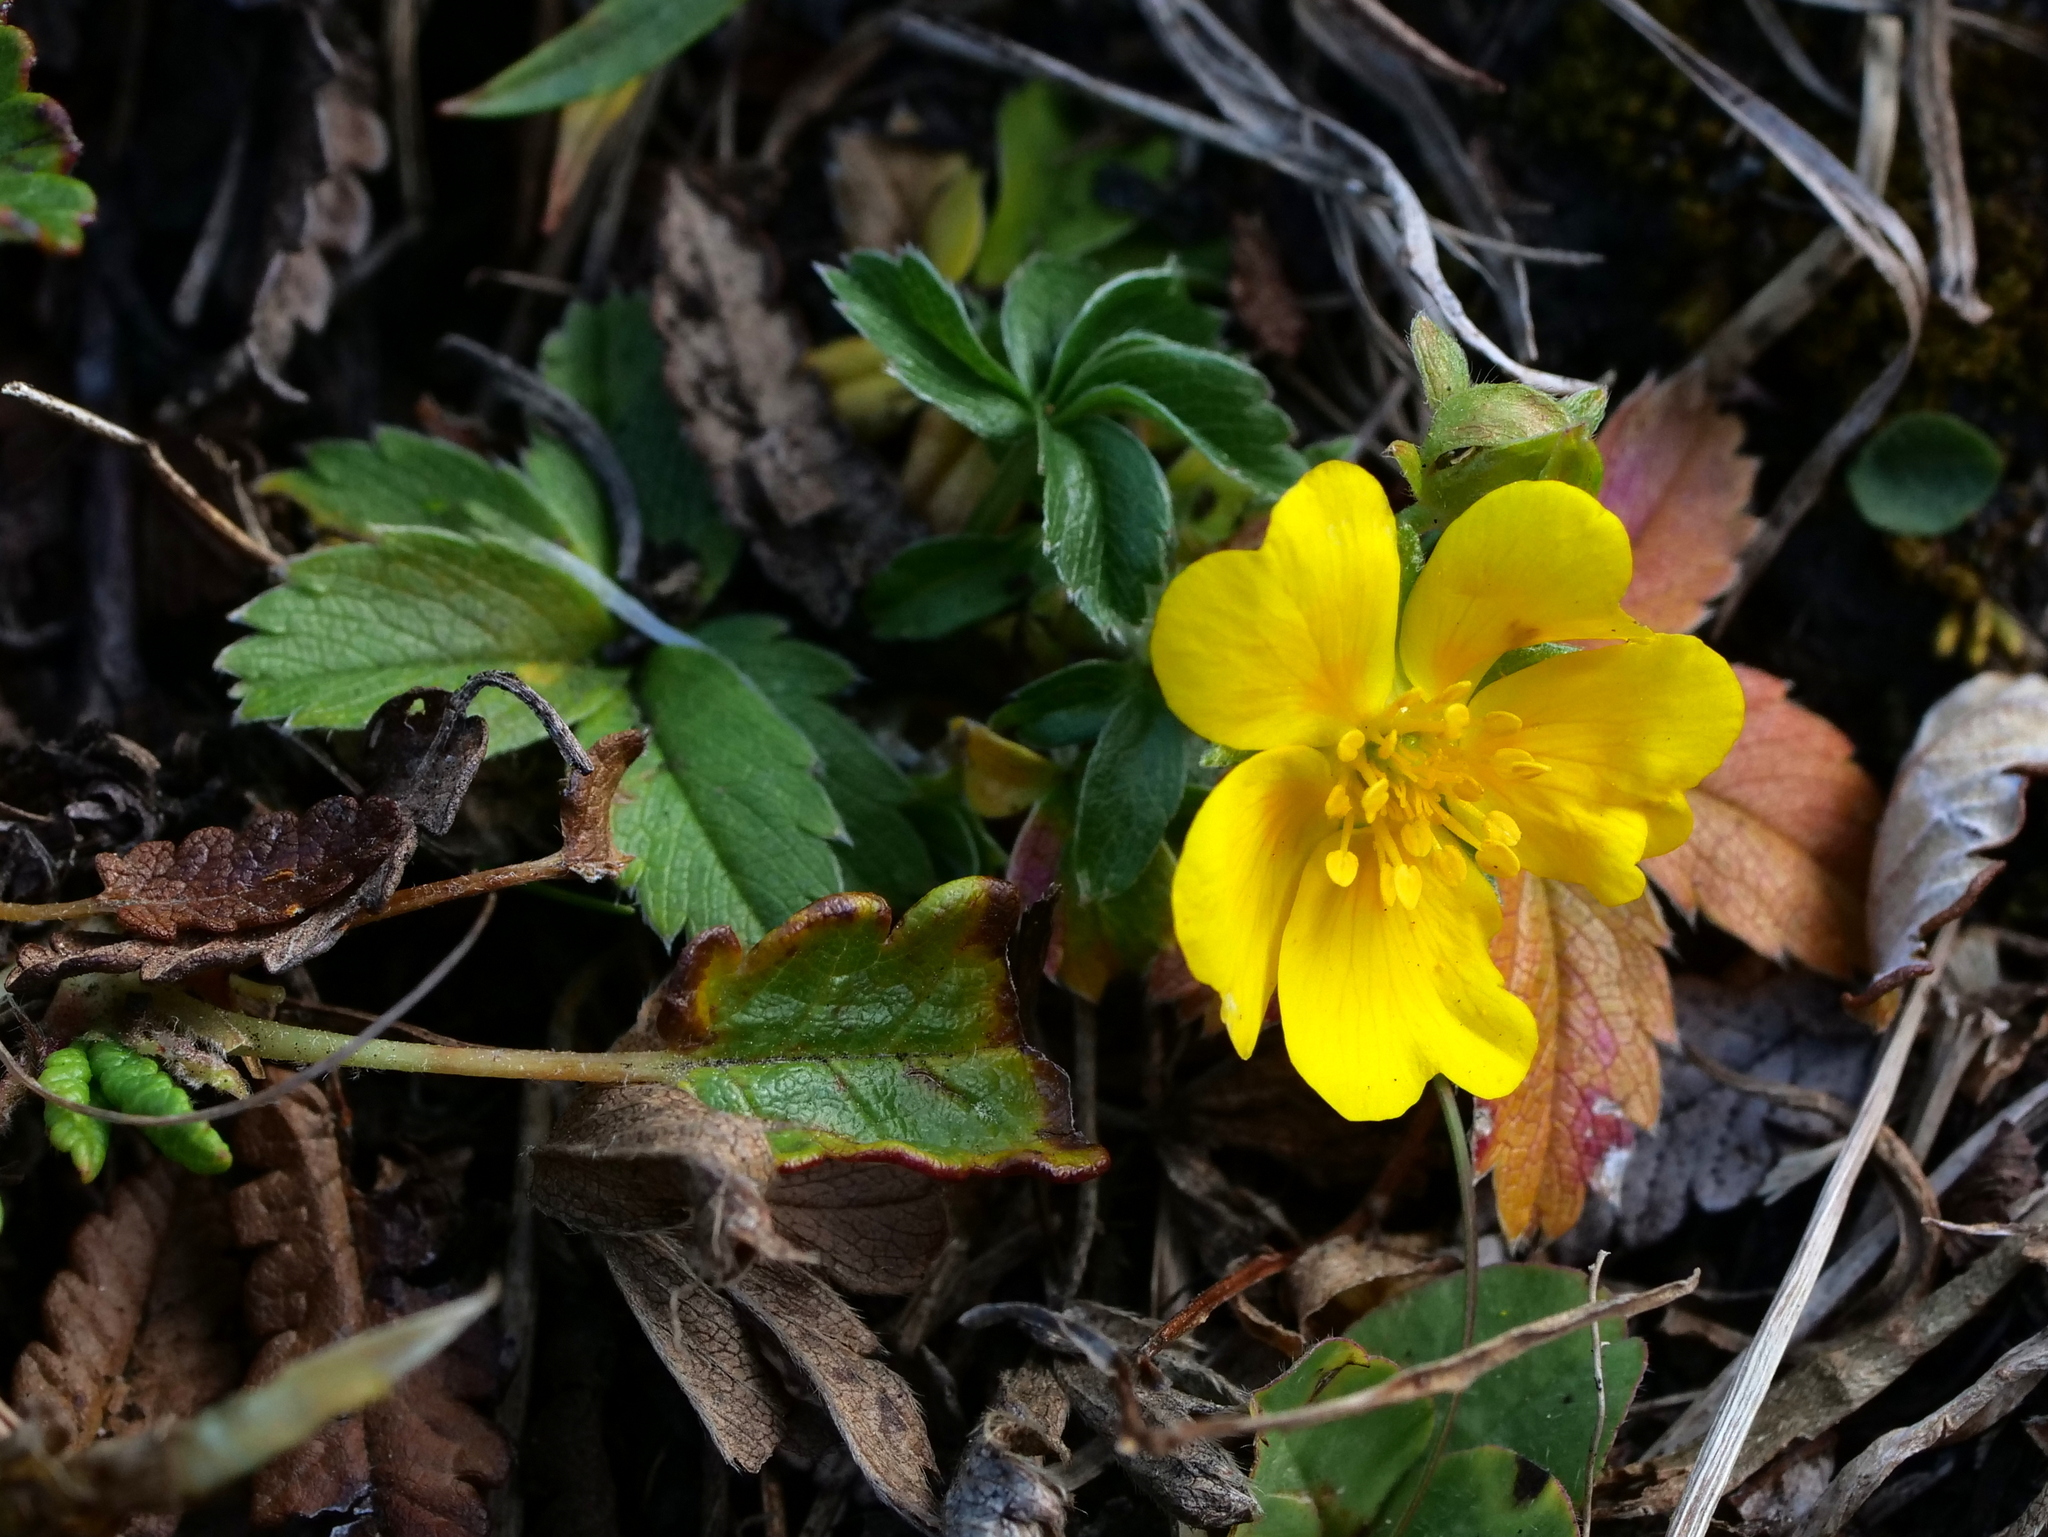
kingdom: Plantae
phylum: Tracheophyta
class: Magnoliopsida
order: Rosales
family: Rosaceae
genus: Potentilla
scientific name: Potentilla aurea
